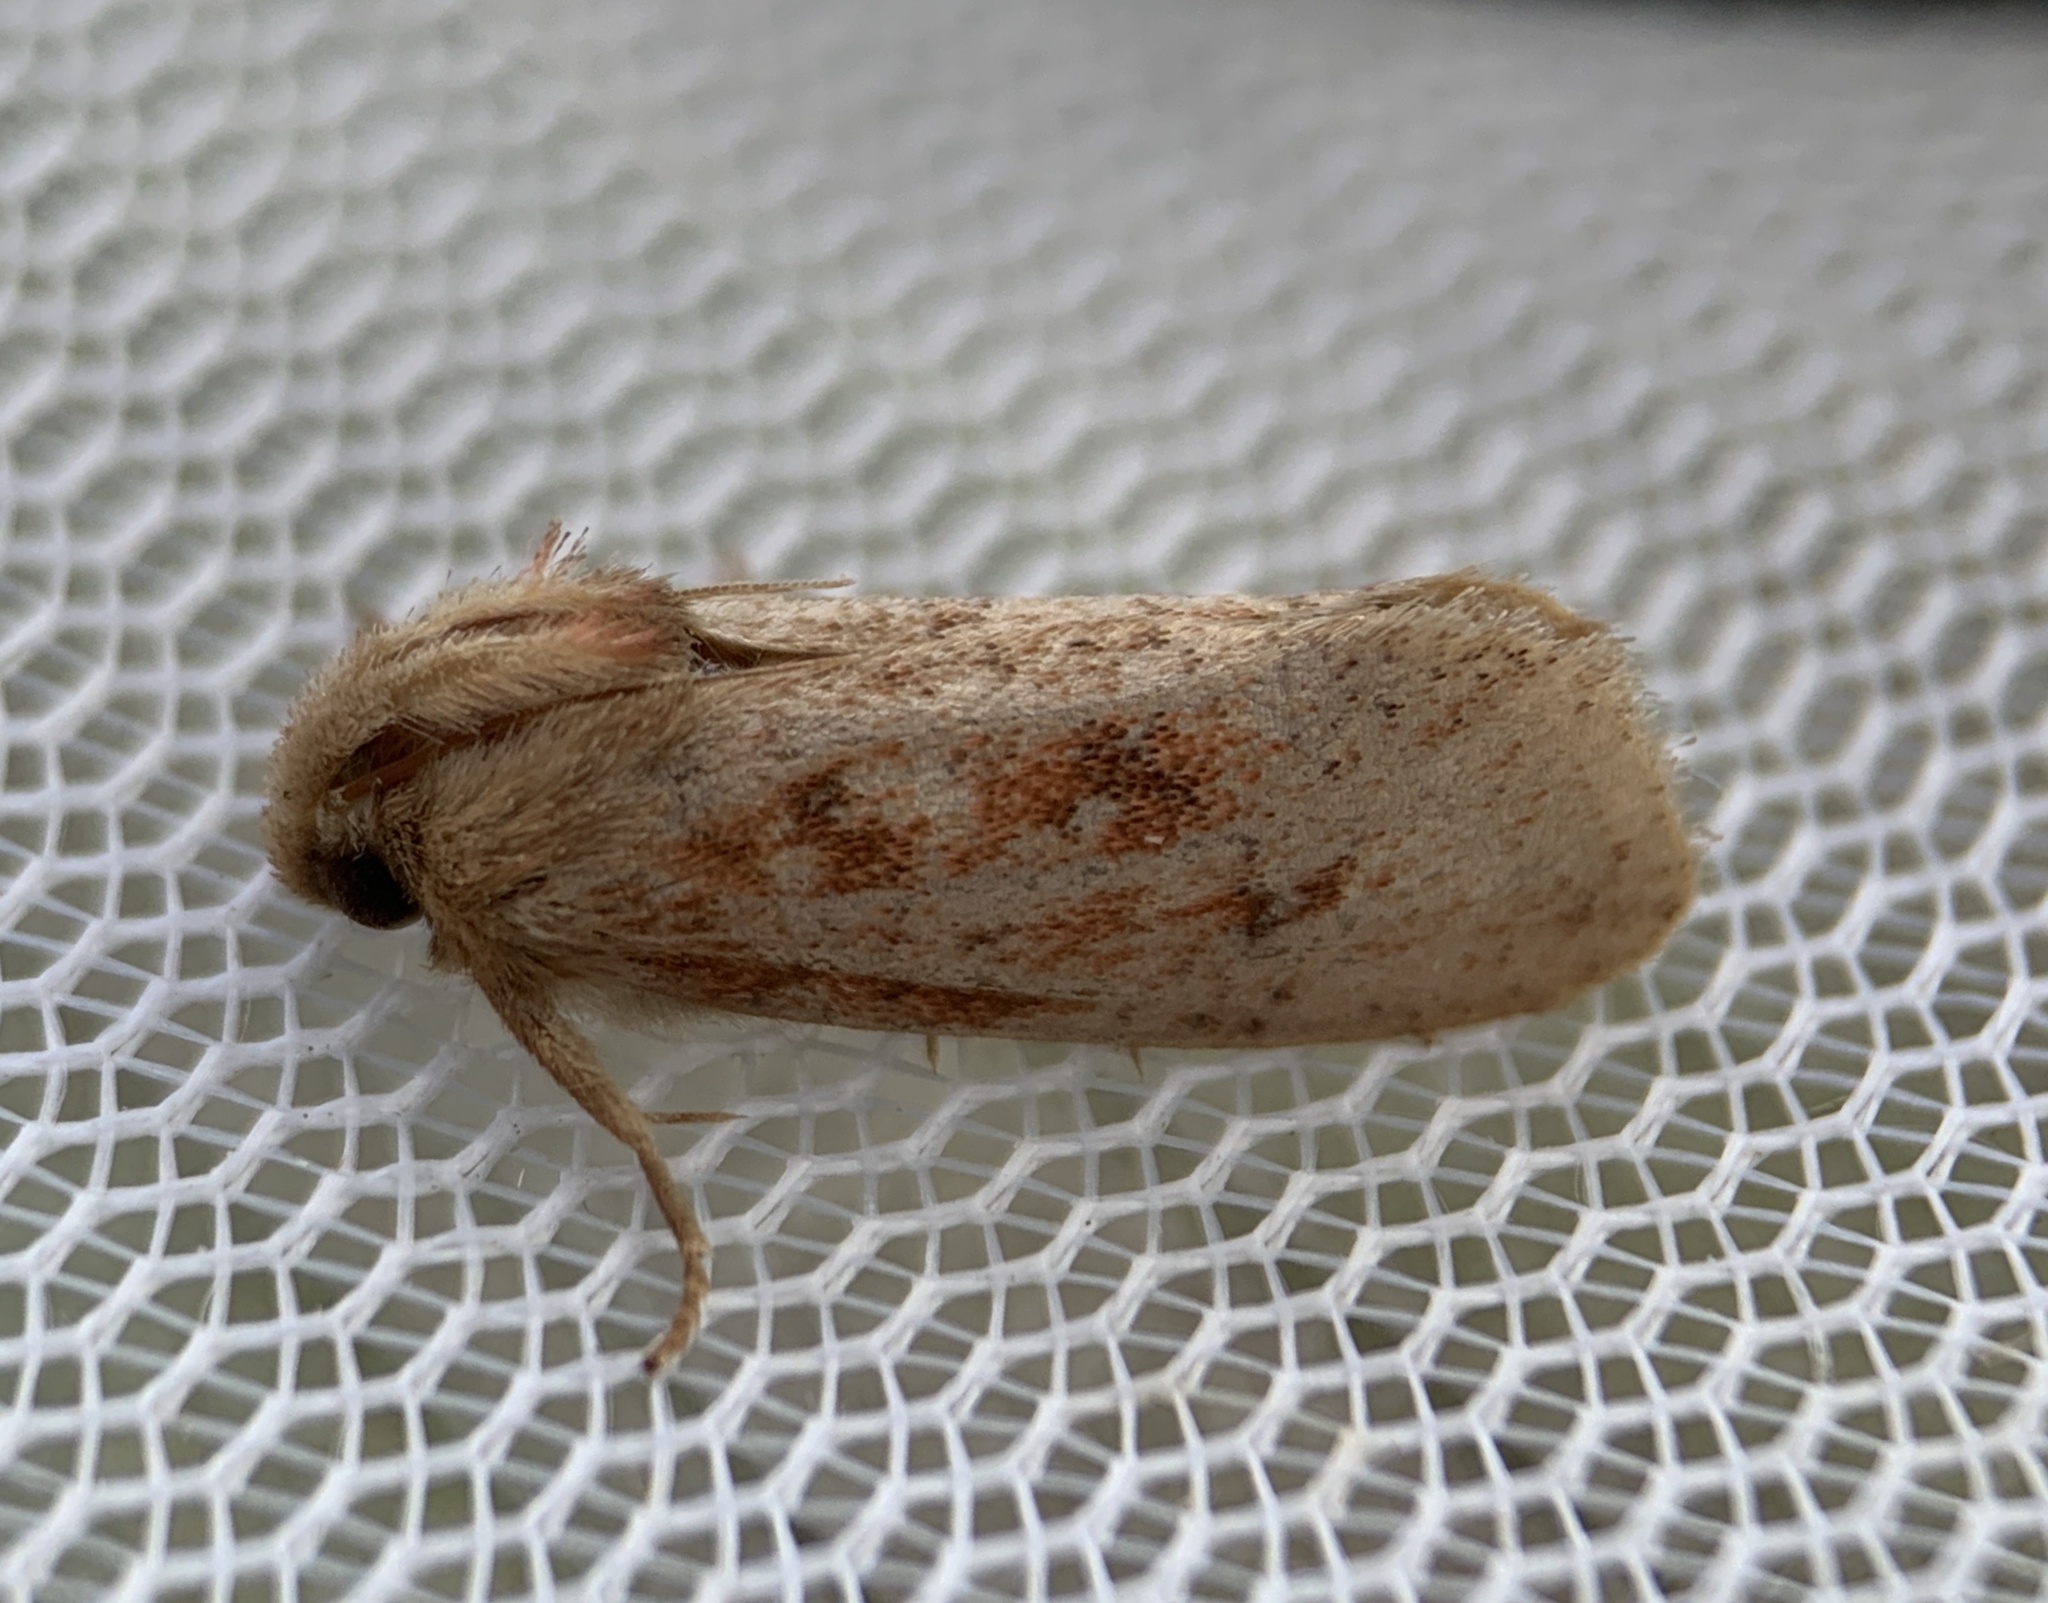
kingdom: Animalia
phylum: Arthropoda
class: Insecta
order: Lepidoptera
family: Tineidae
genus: Acrolophus
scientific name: Acrolophus plumifrontella
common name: Eastern grass tubeworm moth
